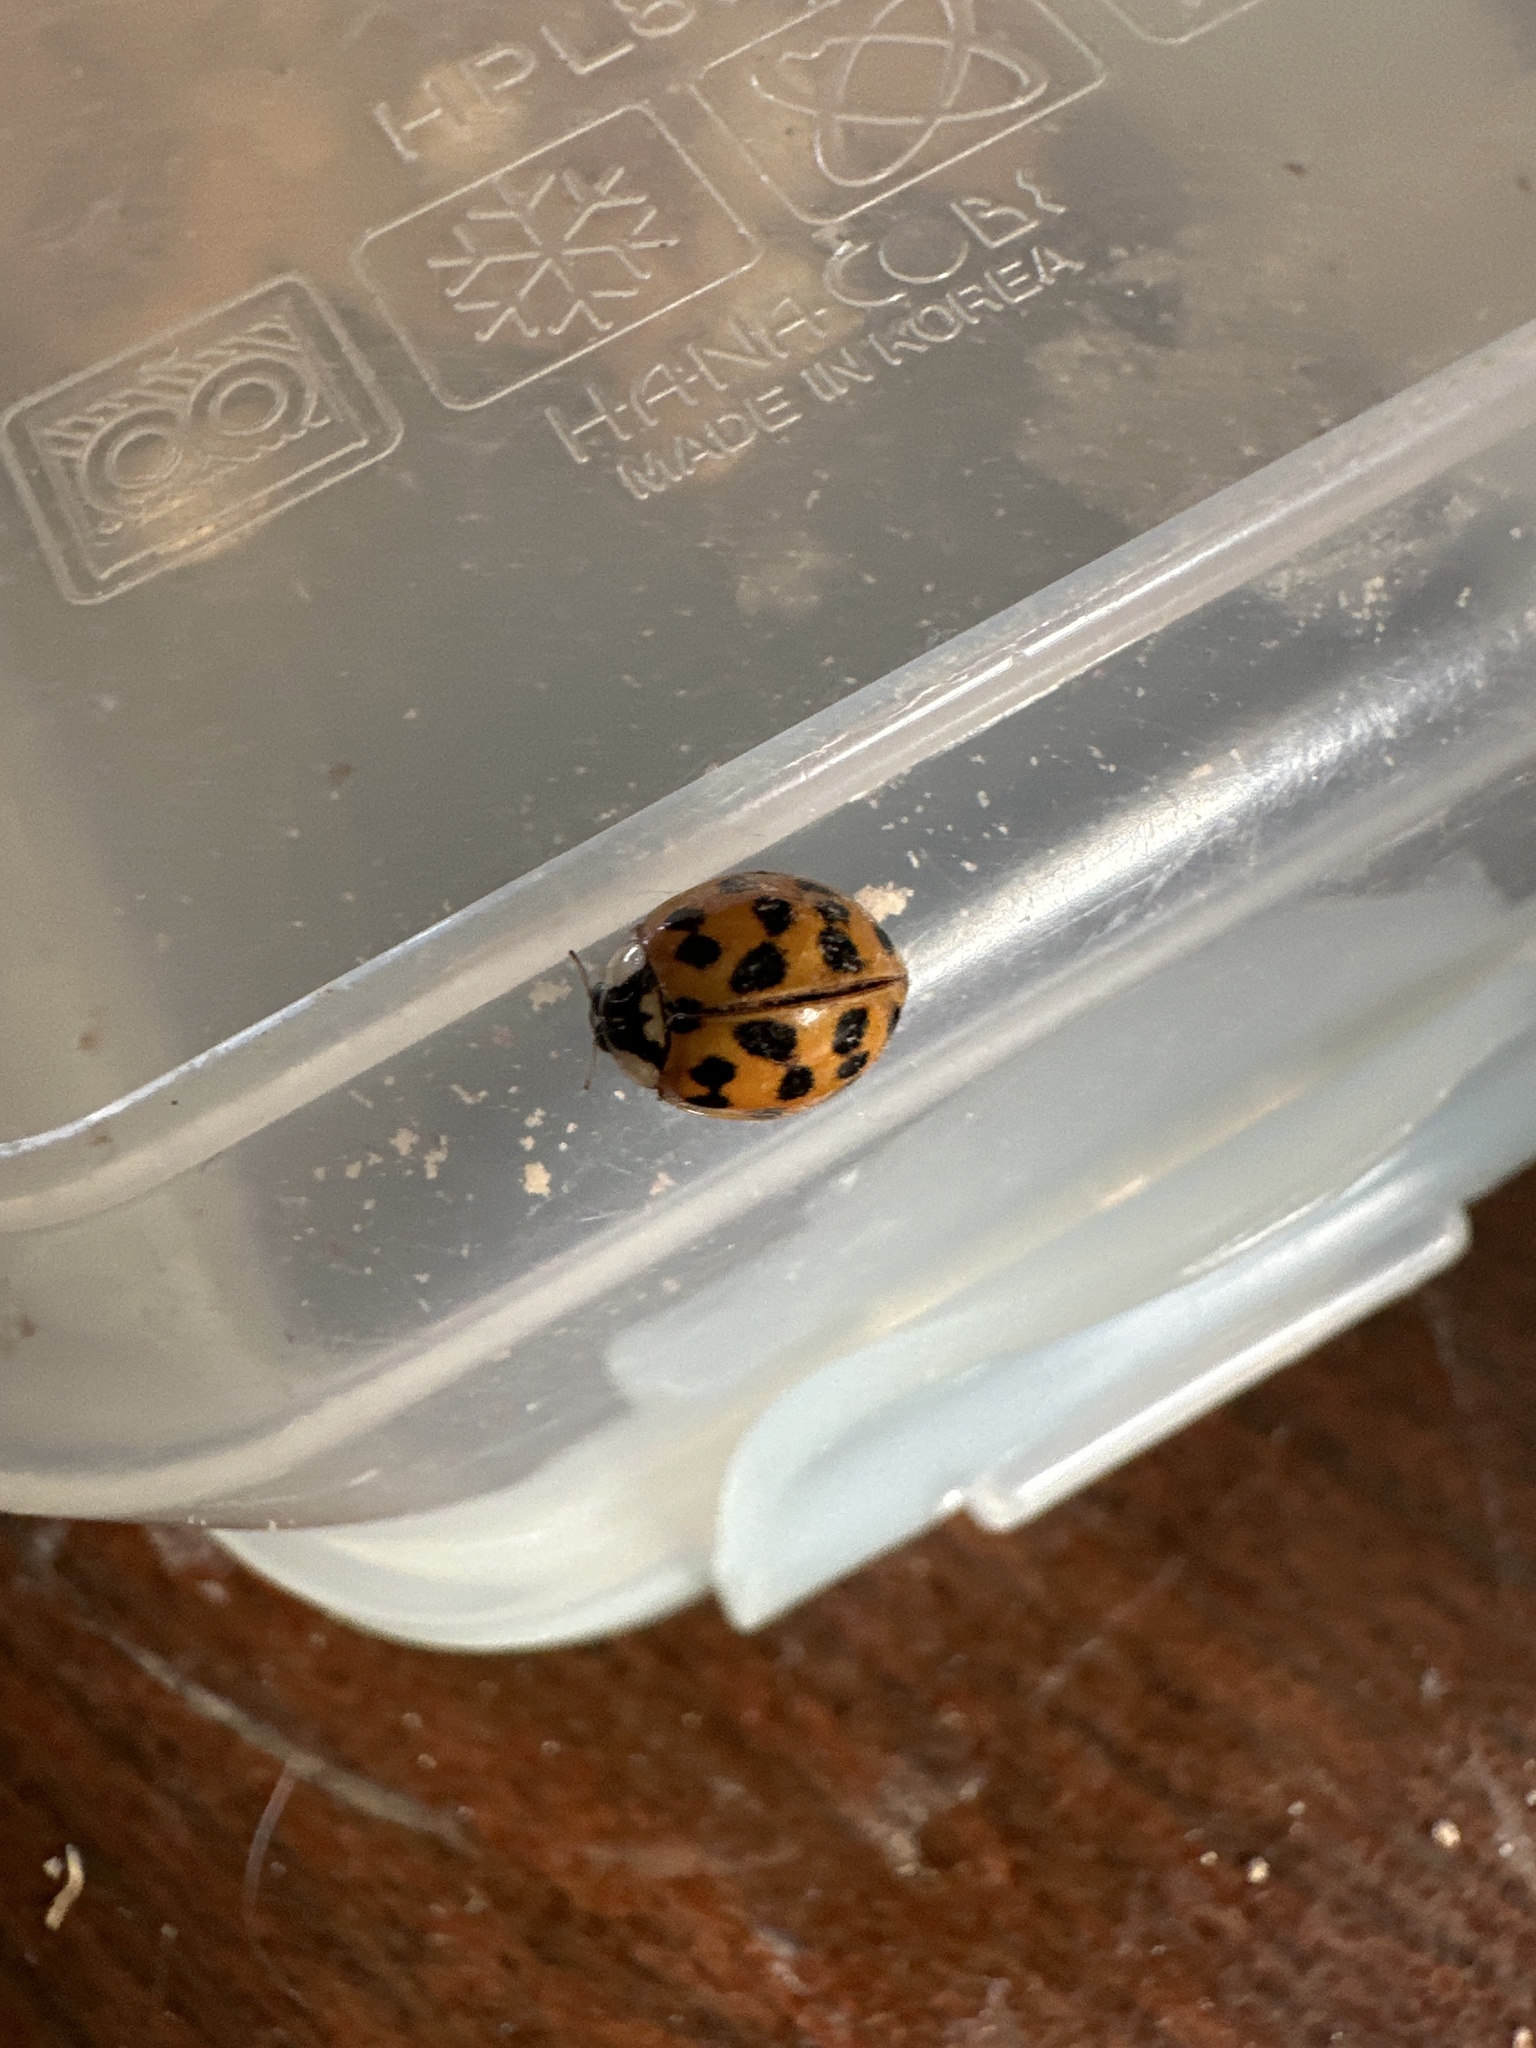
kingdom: Animalia
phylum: Arthropoda
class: Insecta
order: Coleoptera
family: Coccinellidae
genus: Harmonia
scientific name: Harmonia axyridis
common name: Harlequin ladybird
